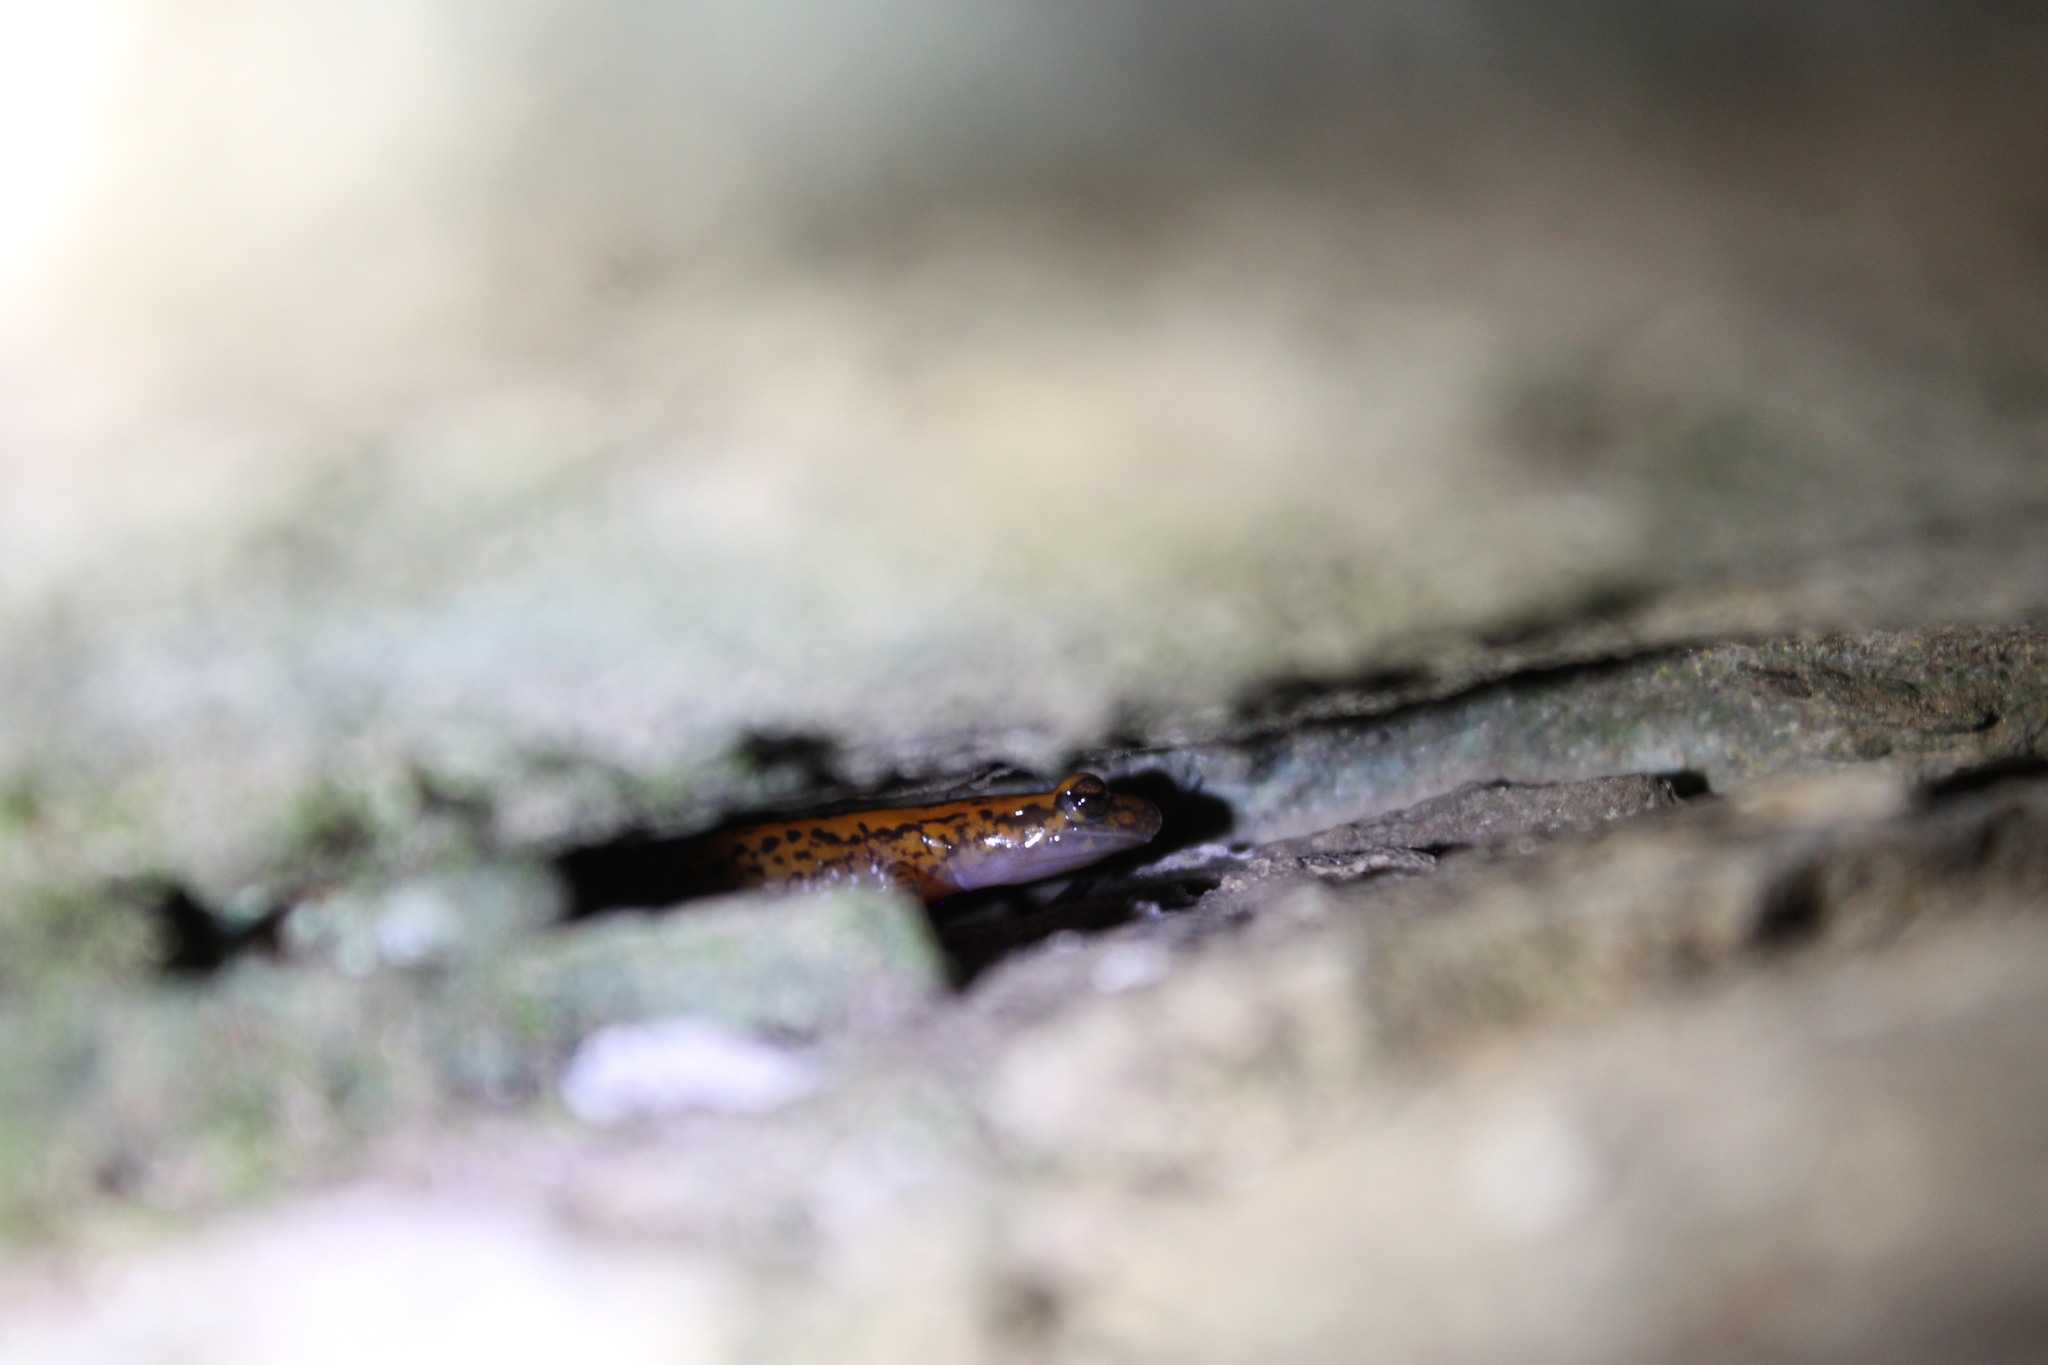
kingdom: Animalia
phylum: Chordata
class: Amphibia
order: Caudata
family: Plethodontidae
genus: Eurycea
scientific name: Eurycea lucifuga
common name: Cave salamander
